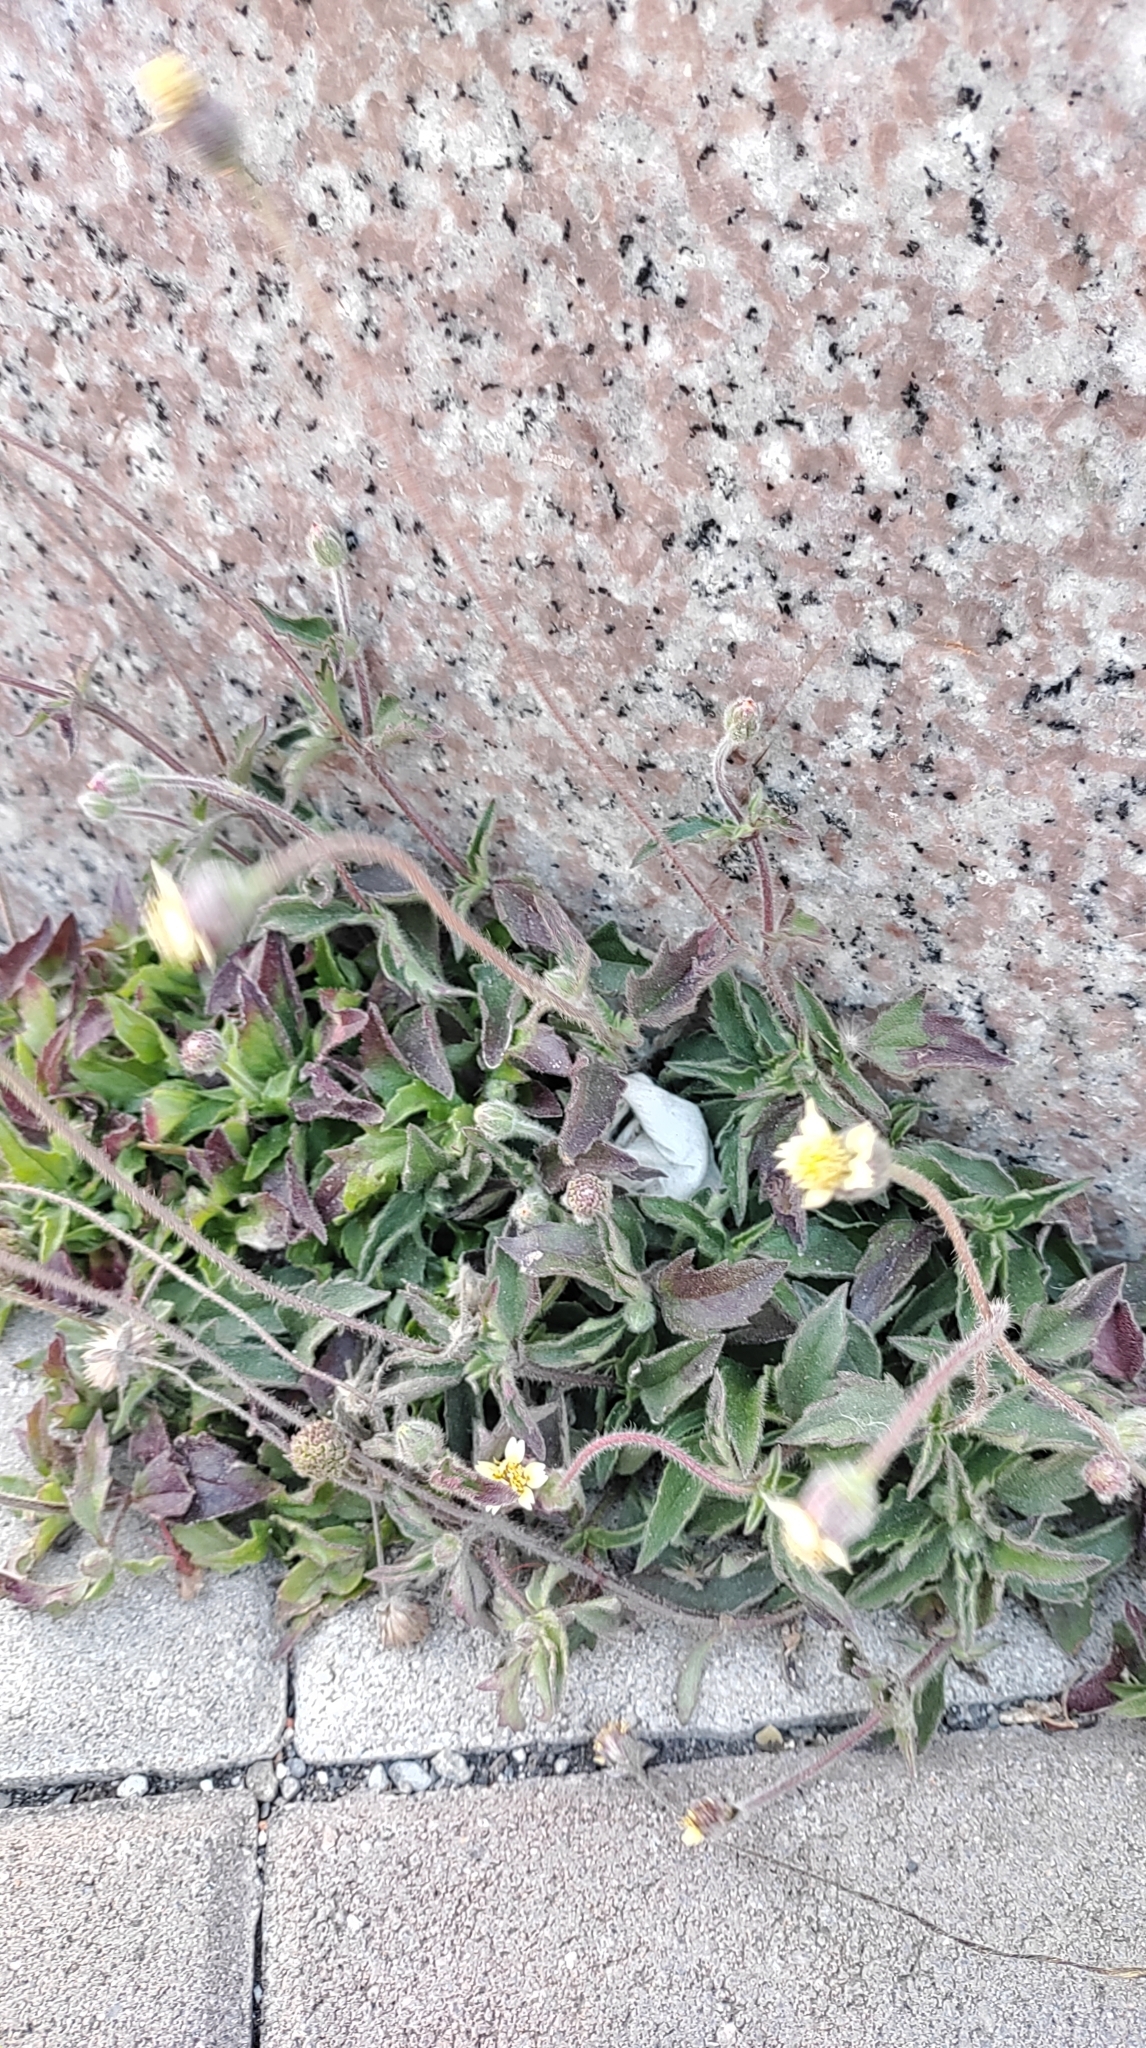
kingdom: Plantae
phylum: Tracheophyta
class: Magnoliopsida
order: Asterales
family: Asteraceae
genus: Tridax
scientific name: Tridax procumbens
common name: Coatbuttons
